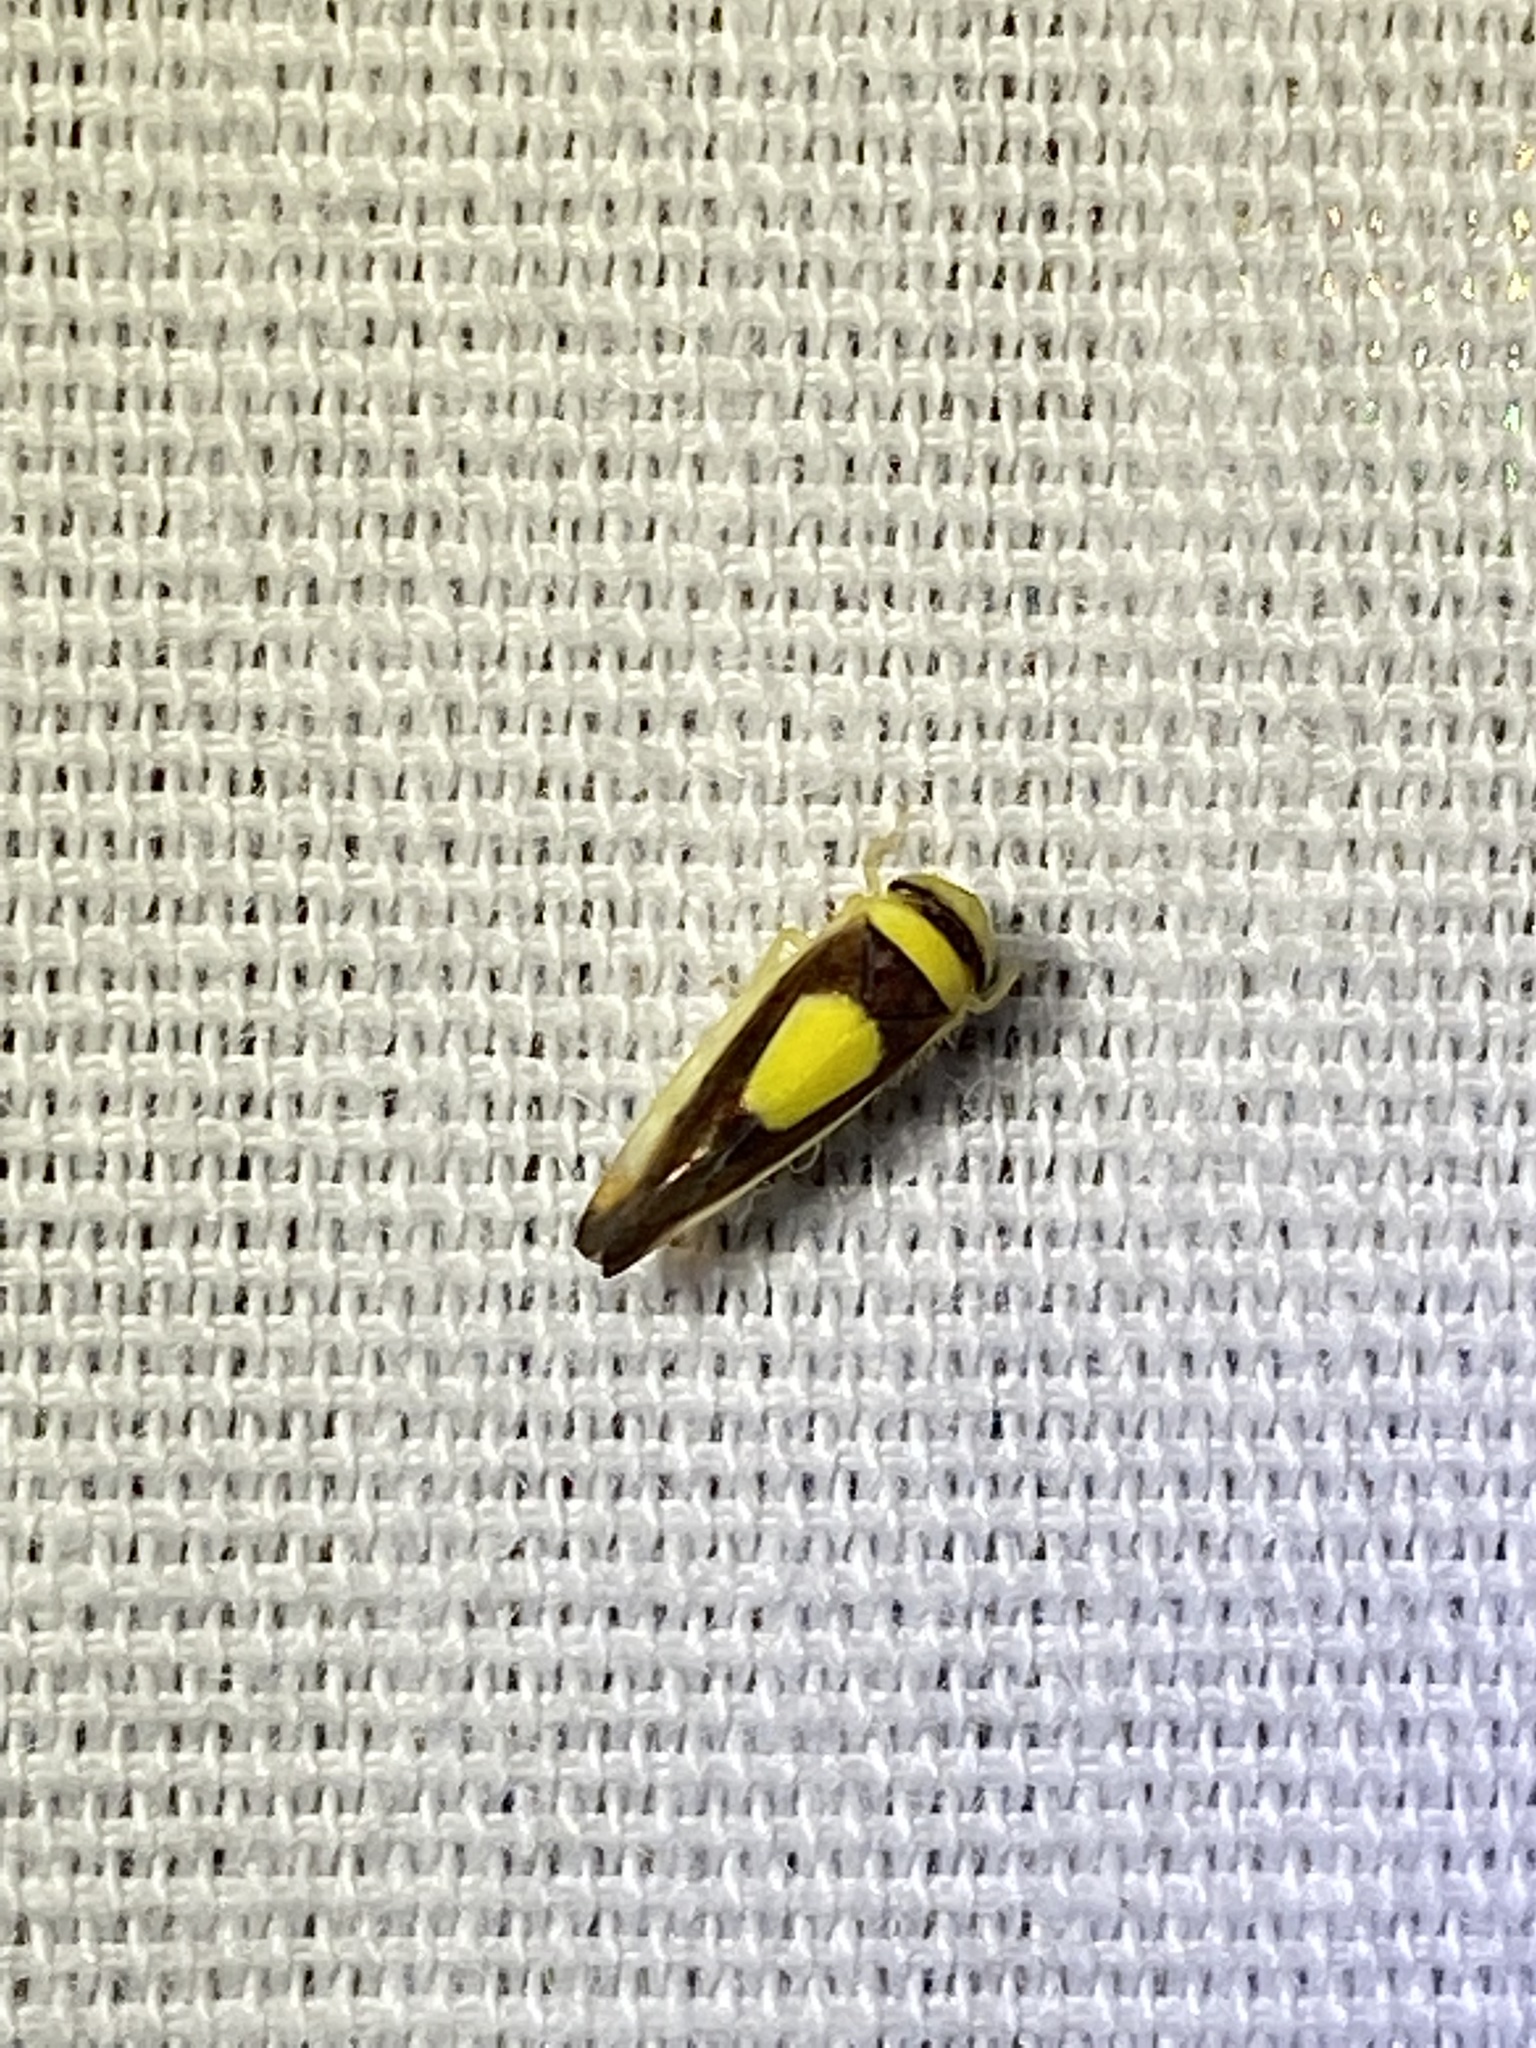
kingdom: Animalia
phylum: Arthropoda
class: Insecta
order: Hemiptera
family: Cicadellidae
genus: Colladonus
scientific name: Colladonus clitellarius
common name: The saddleback leafhopper
